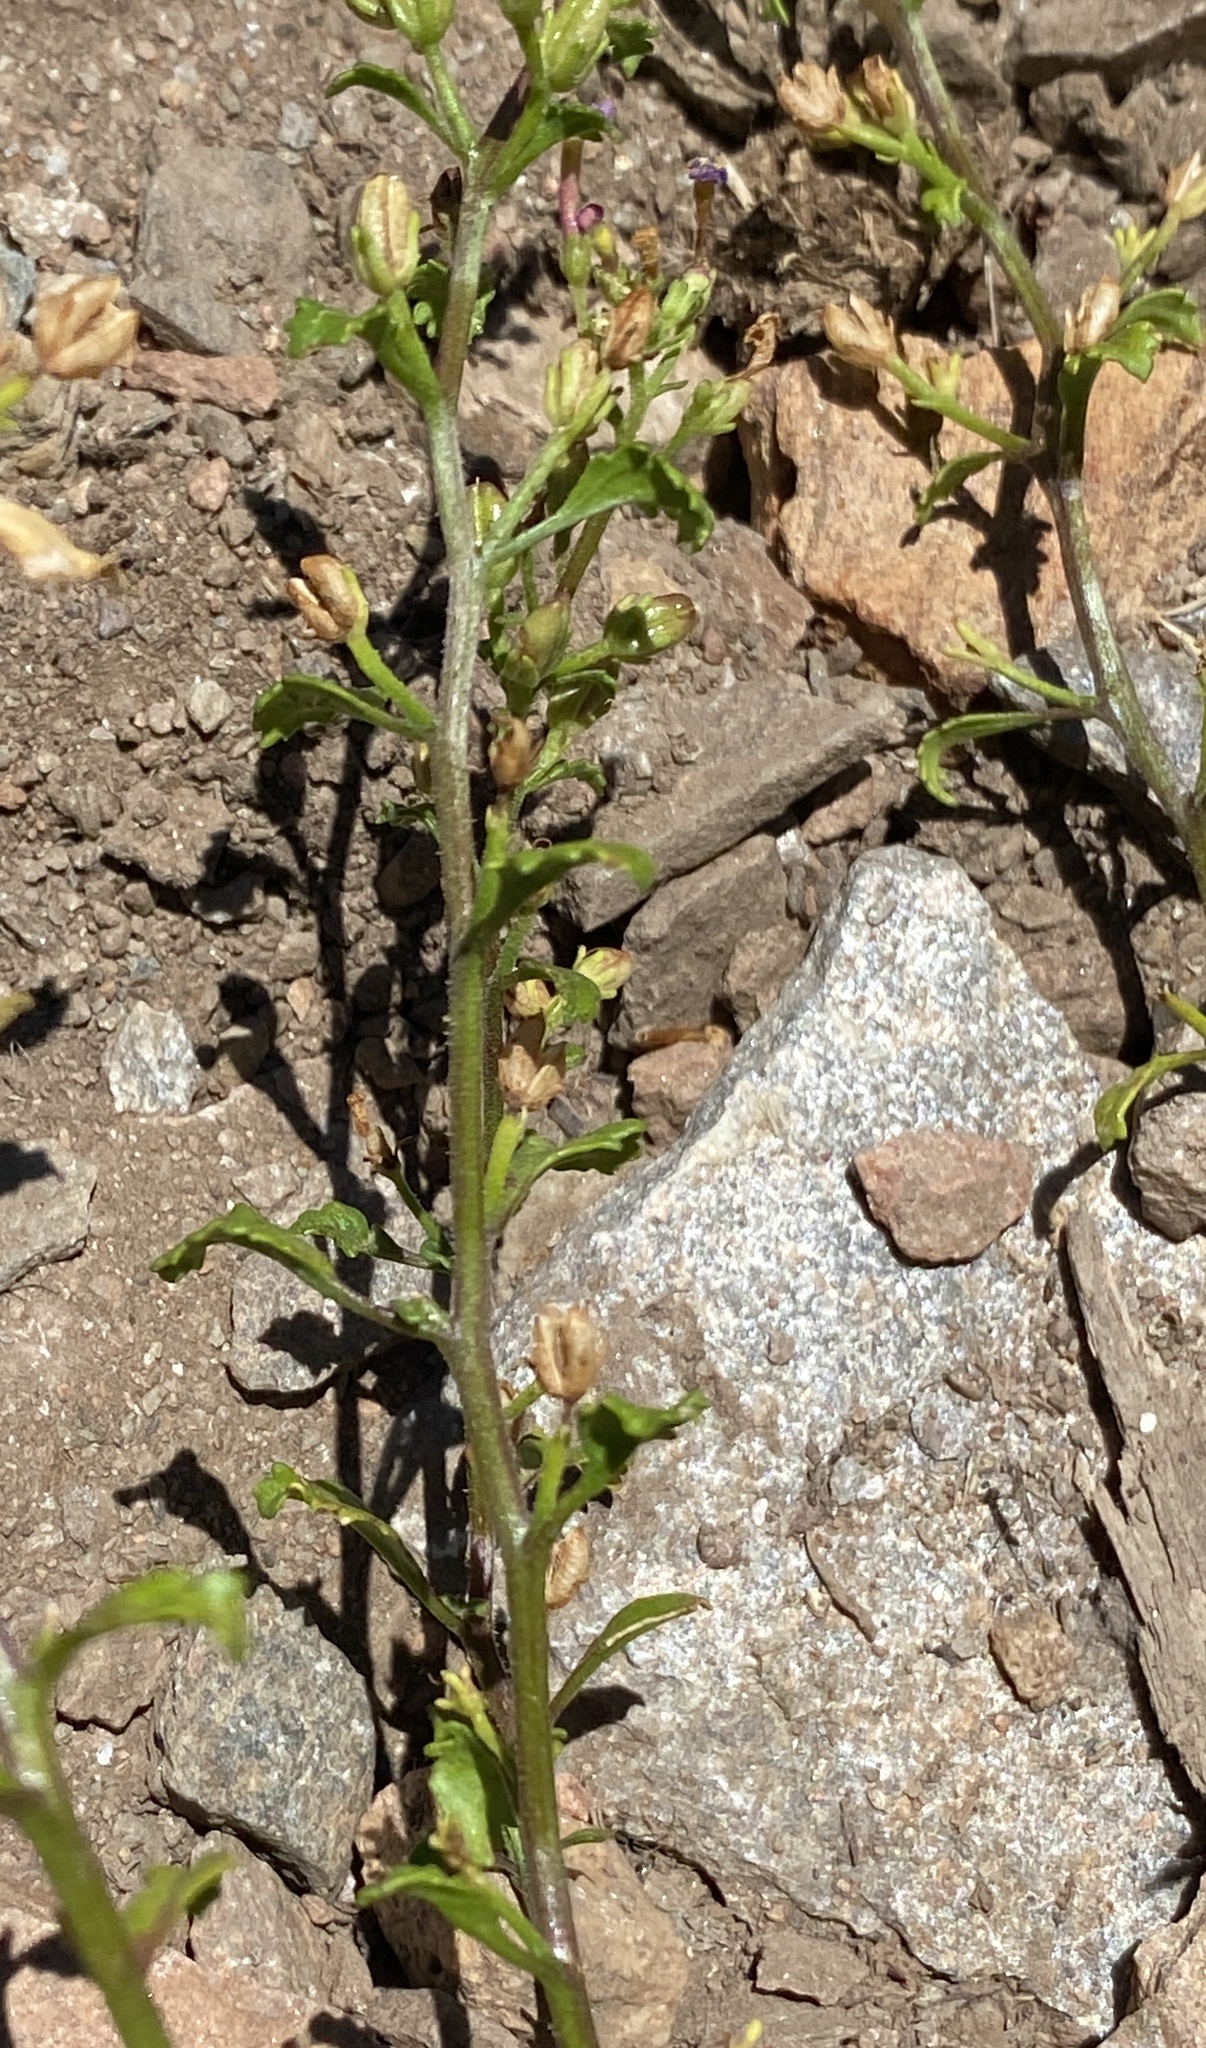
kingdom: Plantae
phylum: Tracheophyta
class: Magnoliopsida
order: Lamiales
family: Scrophulariaceae
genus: Sutera
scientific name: Sutera foetida
